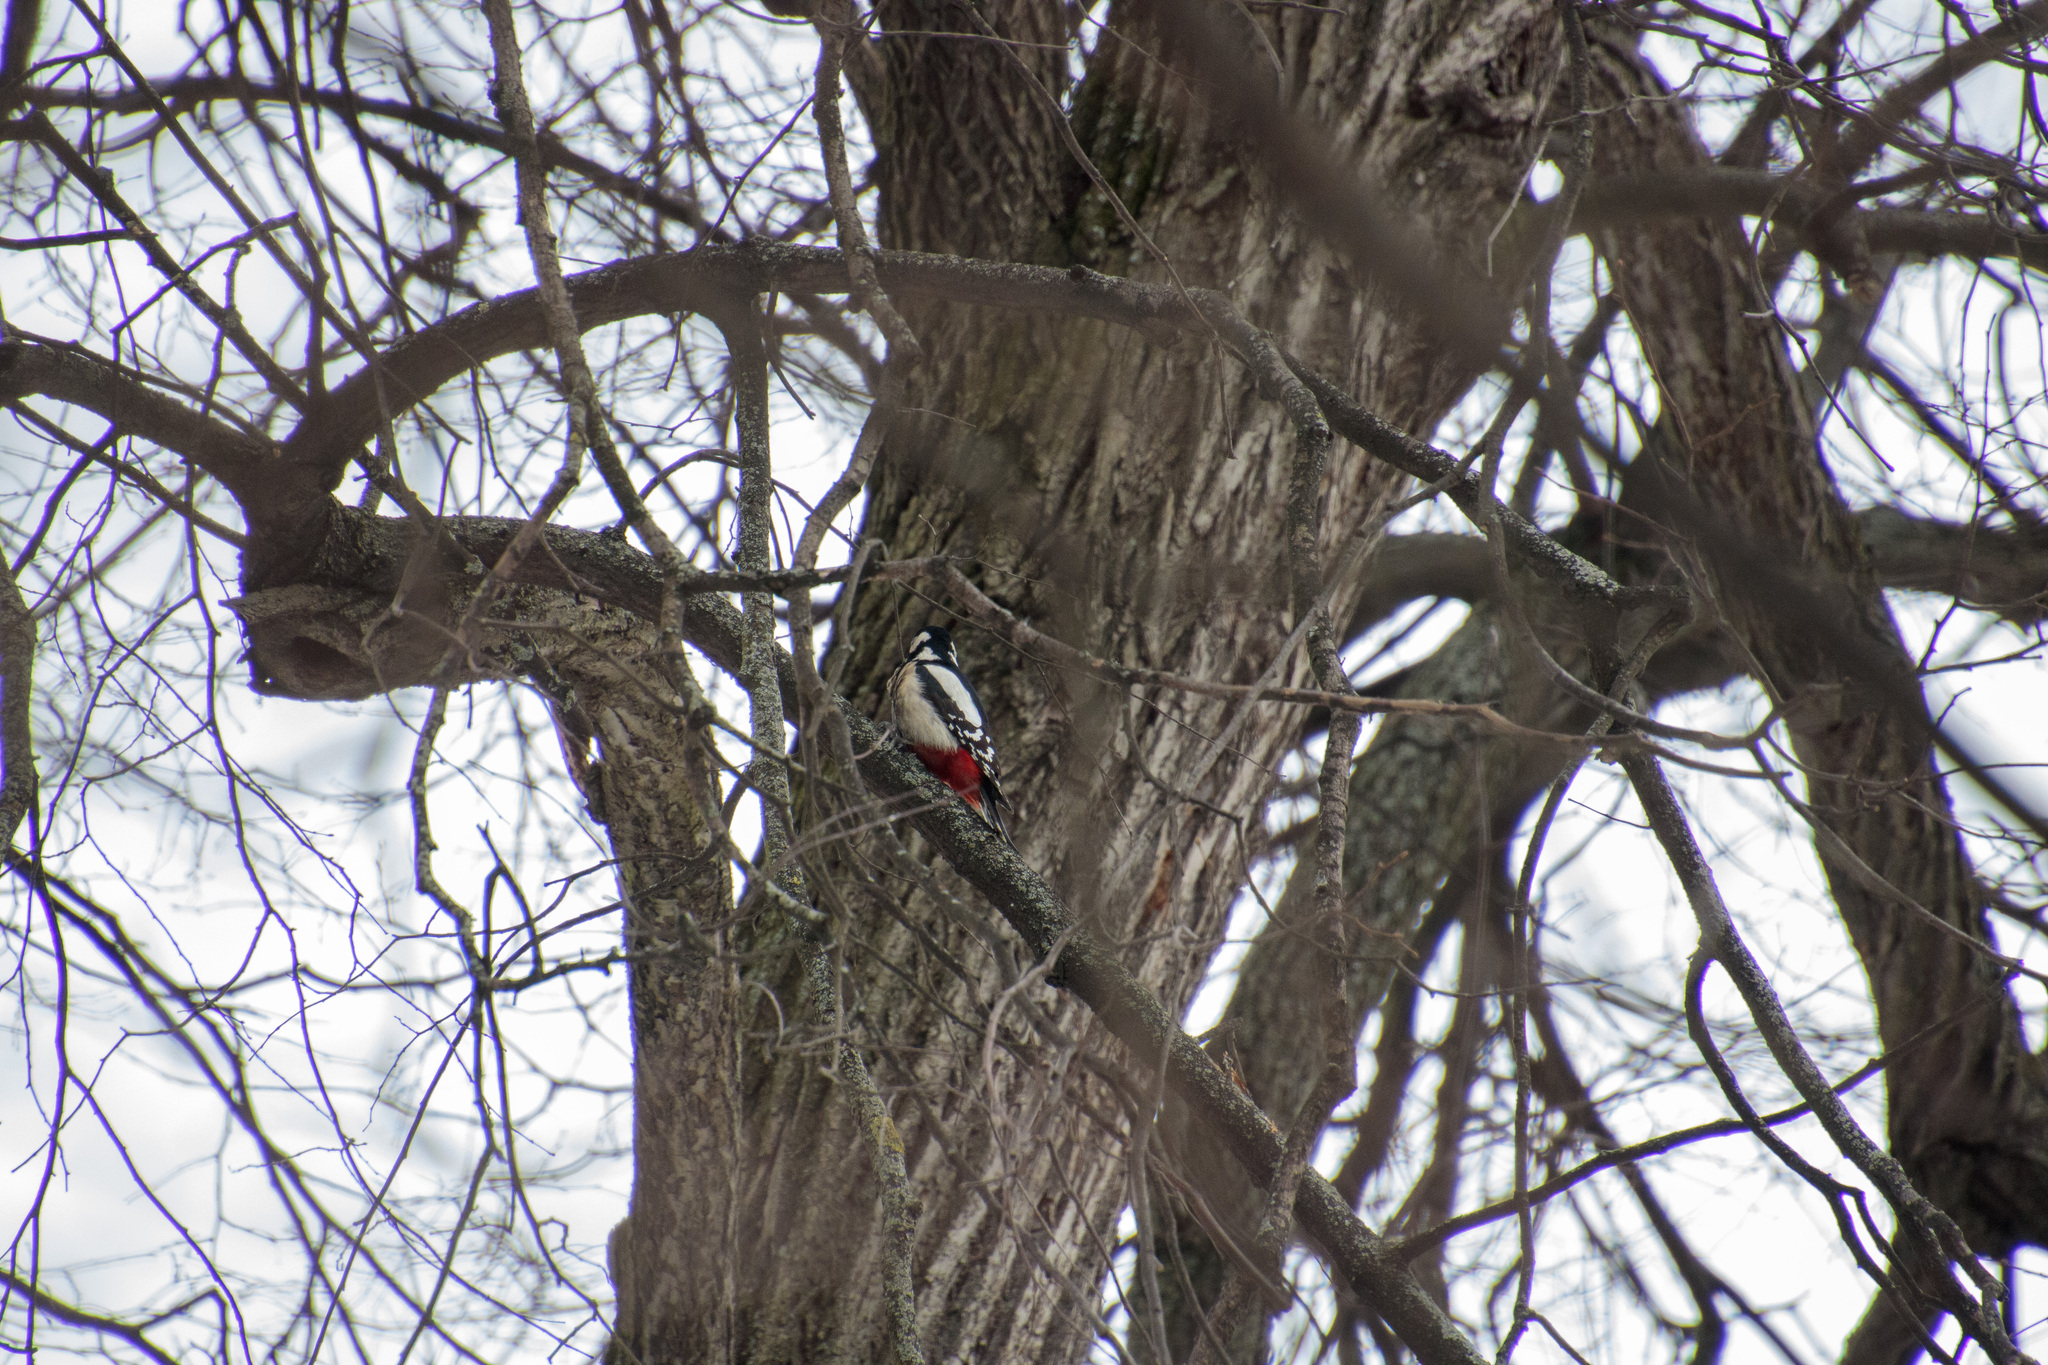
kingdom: Animalia
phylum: Chordata
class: Aves
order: Piciformes
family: Picidae
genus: Dendrocopos
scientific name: Dendrocopos major
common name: Great spotted woodpecker
